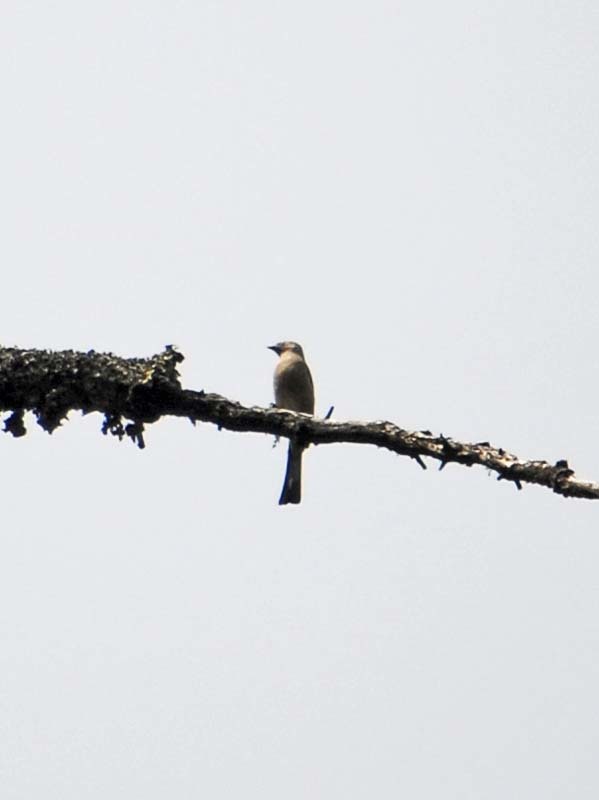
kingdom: Animalia
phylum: Chordata
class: Aves
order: Passeriformes
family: Ptilogonatidae
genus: Ptilogonys
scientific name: Ptilogonys cinereus
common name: Gray silky-flycatcher
